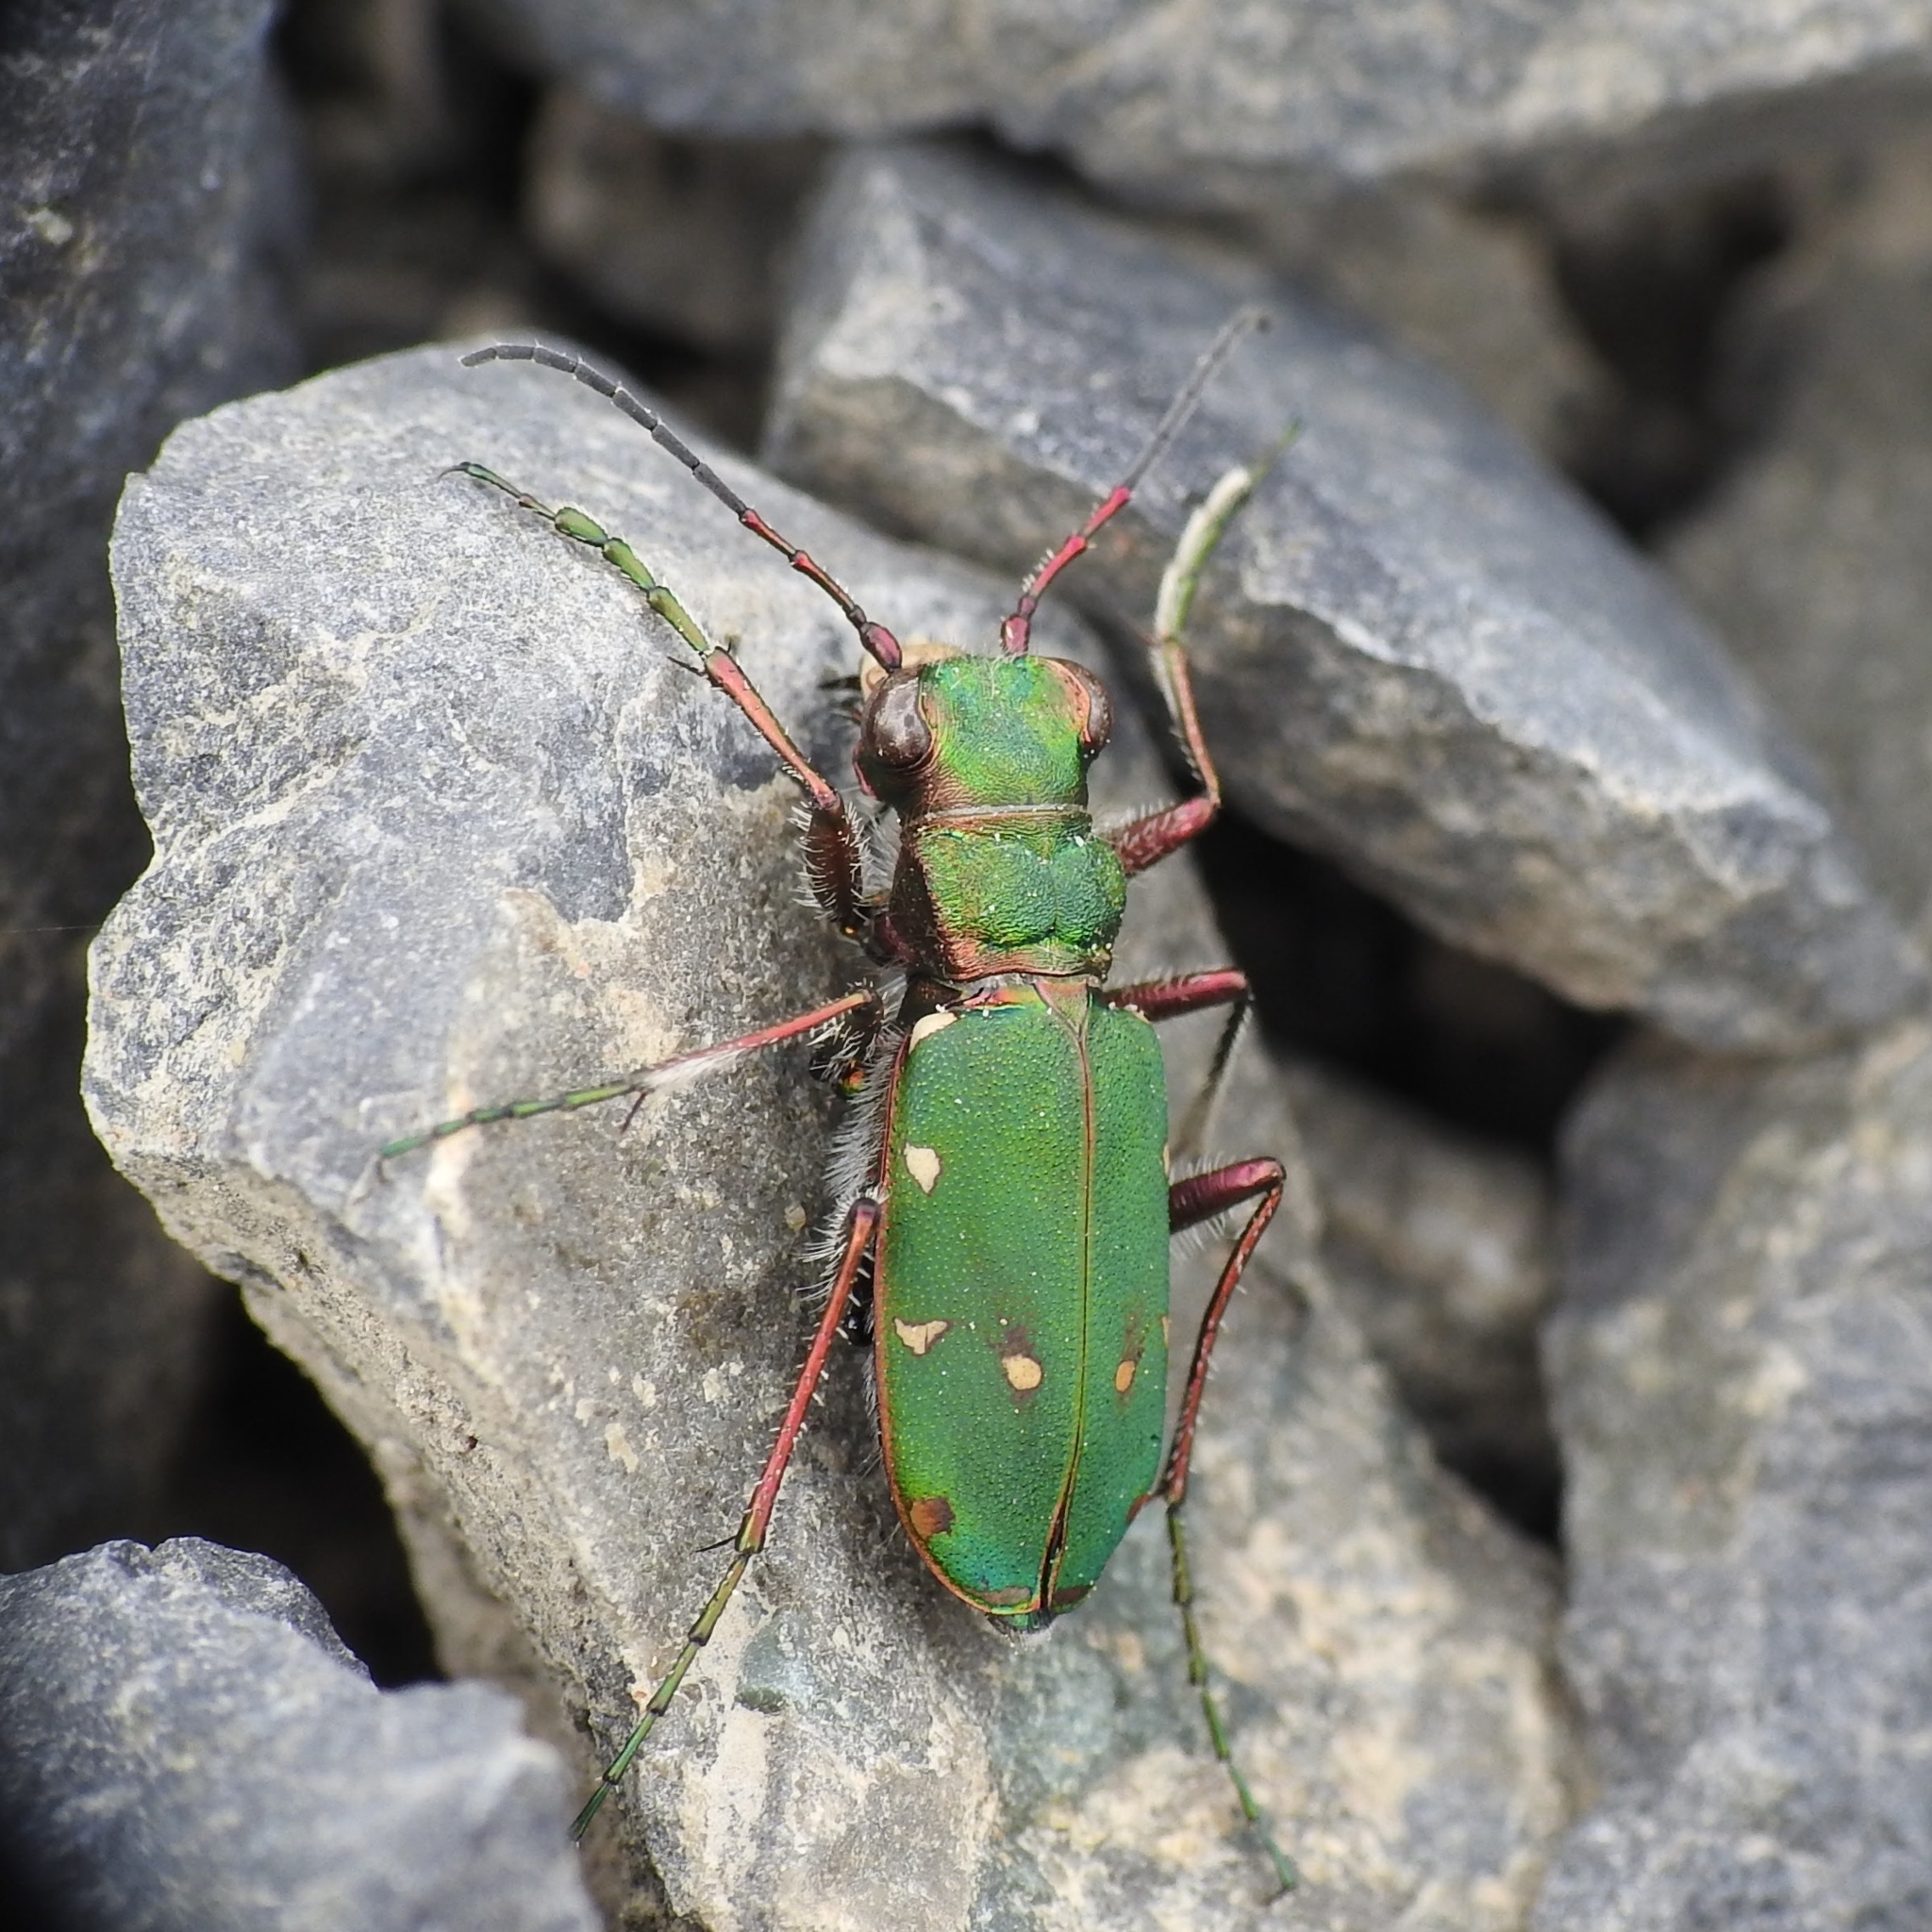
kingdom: Animalia
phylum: Arthropoda
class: Insecta
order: Coleoptera
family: Carabidae
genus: Cicindela
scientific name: Cicindela campestris
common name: Common tiger beetle
